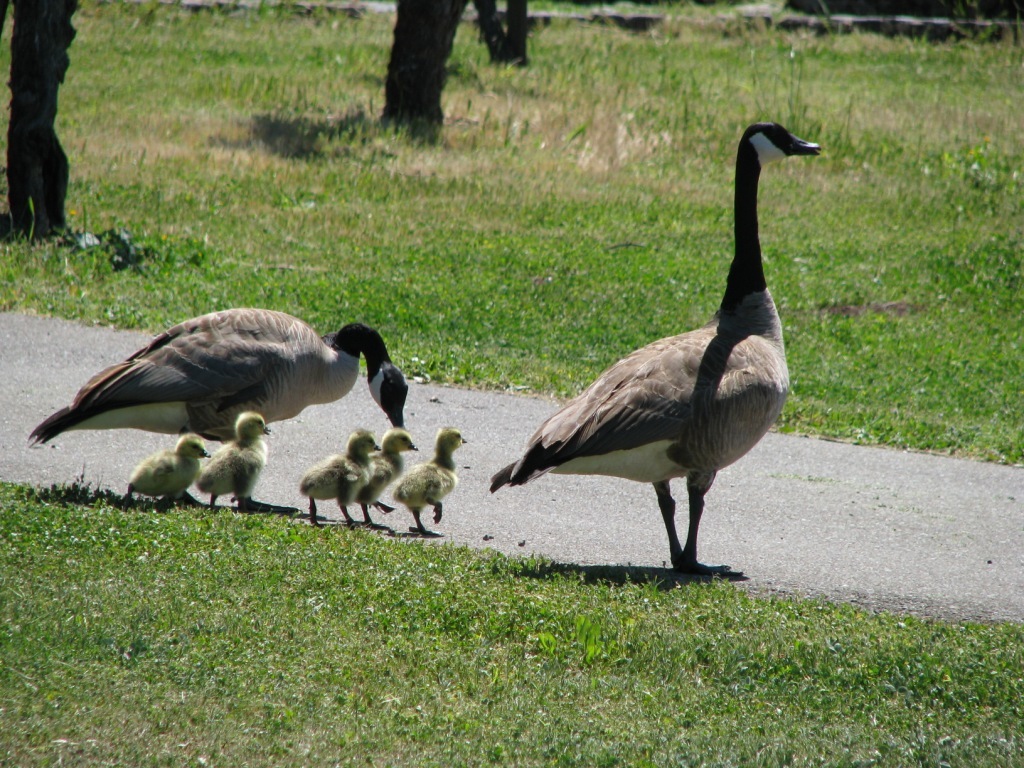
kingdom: Animalia
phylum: Chordata
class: Aves
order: Anseriformes
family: Anatidae
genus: Branta
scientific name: Branta canadensis
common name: Canada goose
